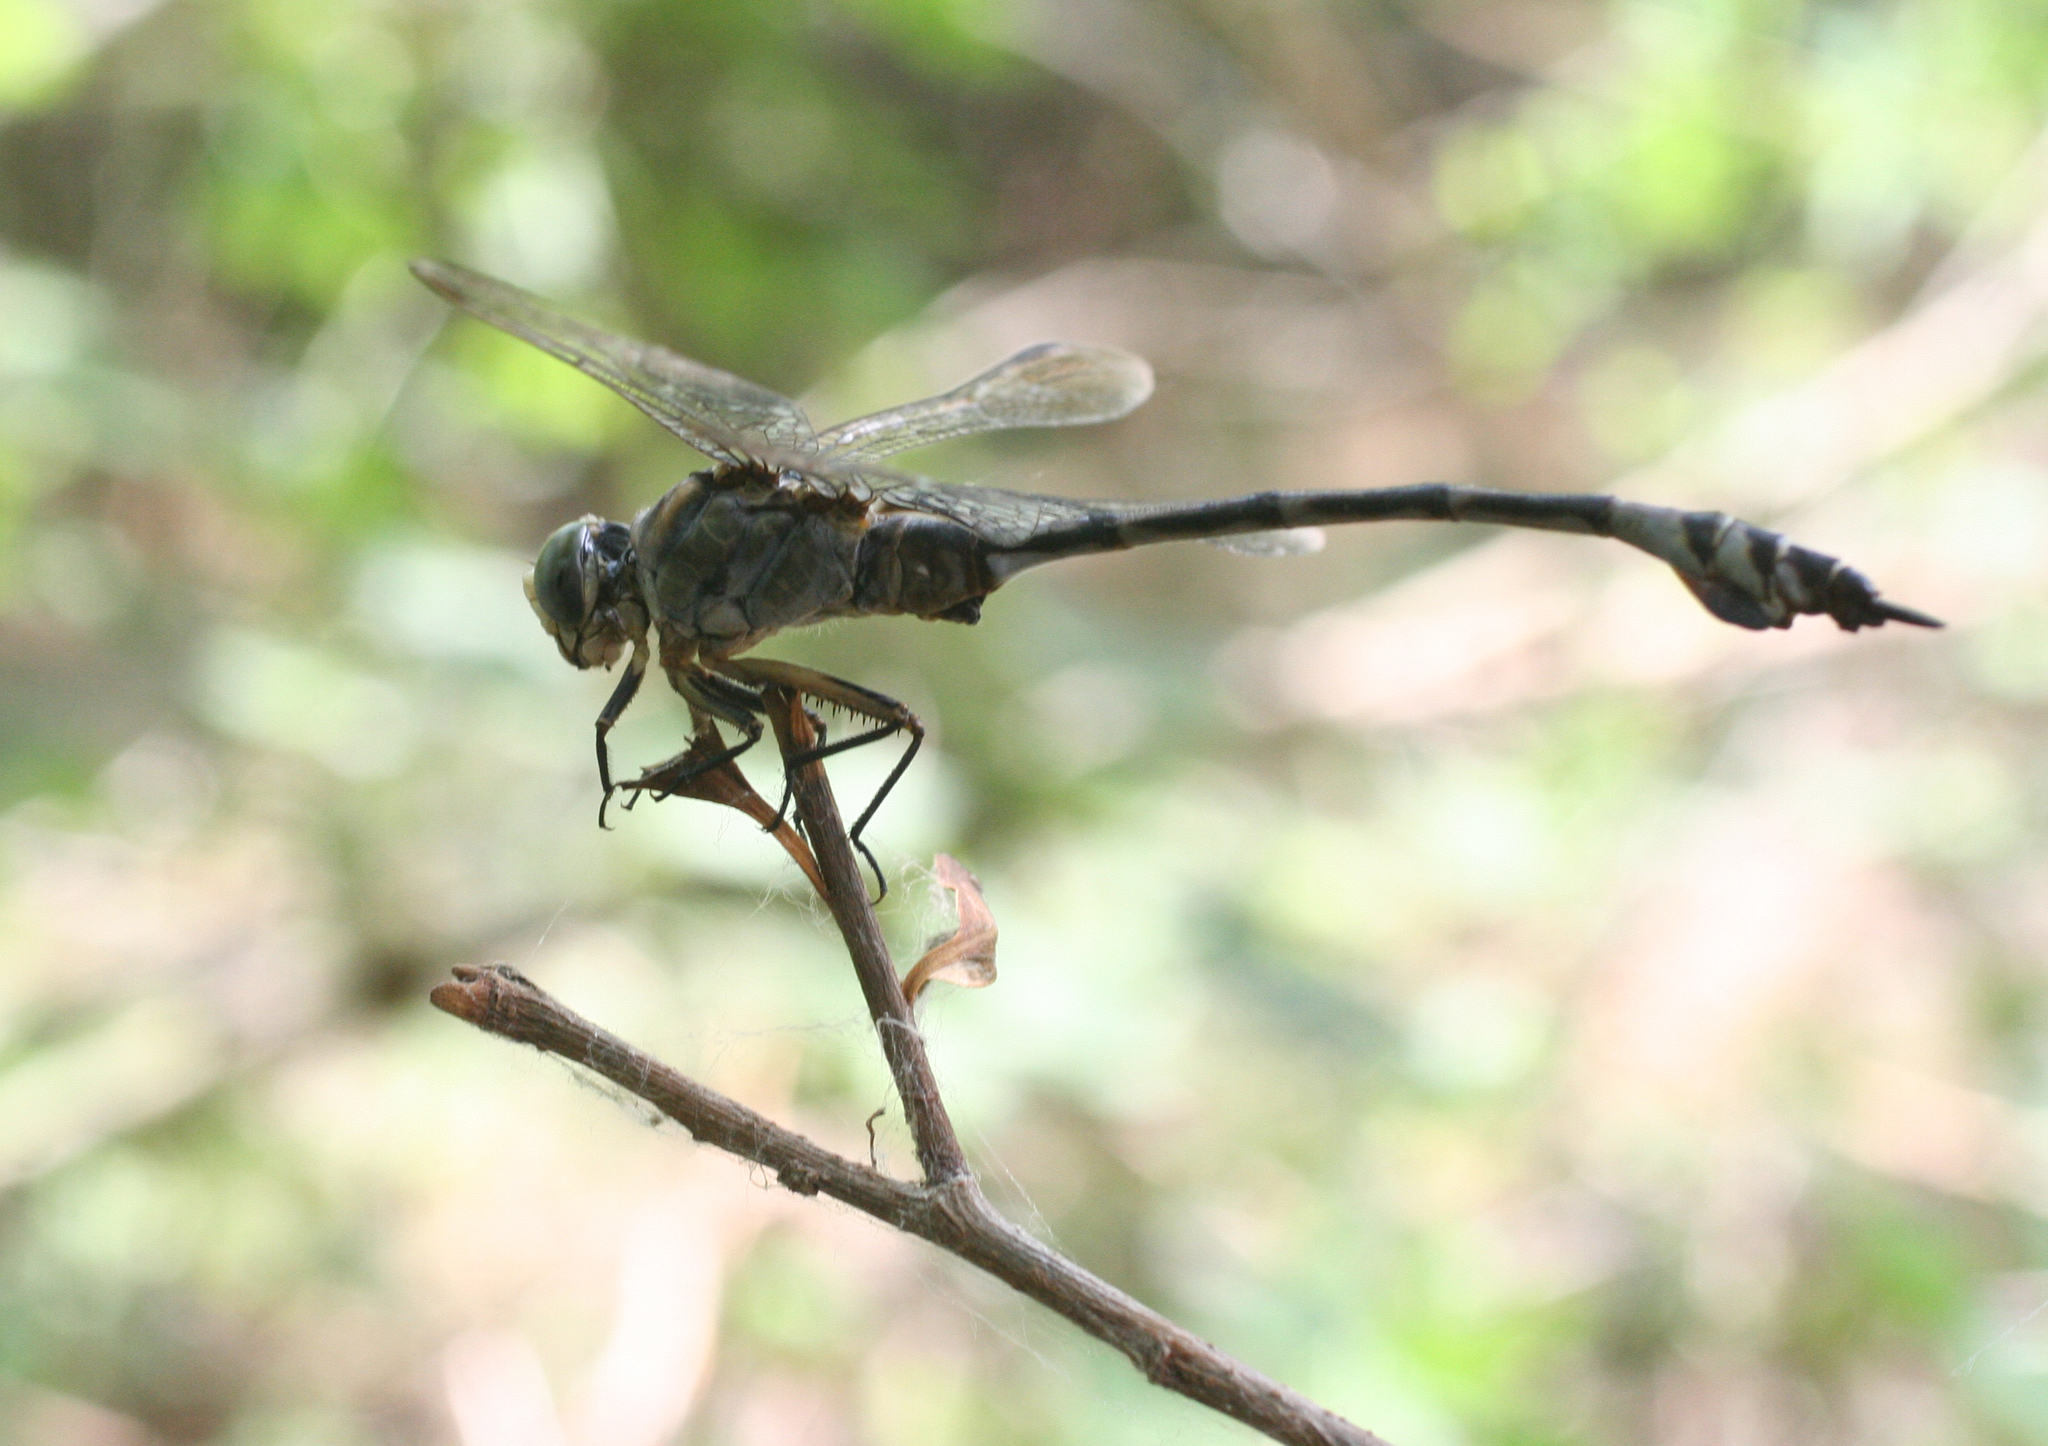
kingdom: Animalia
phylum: Arthropoda
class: Insecta
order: Odonata
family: Gomphidae
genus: Lindenia
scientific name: Lindenia tetraphylla
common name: Bladetail
